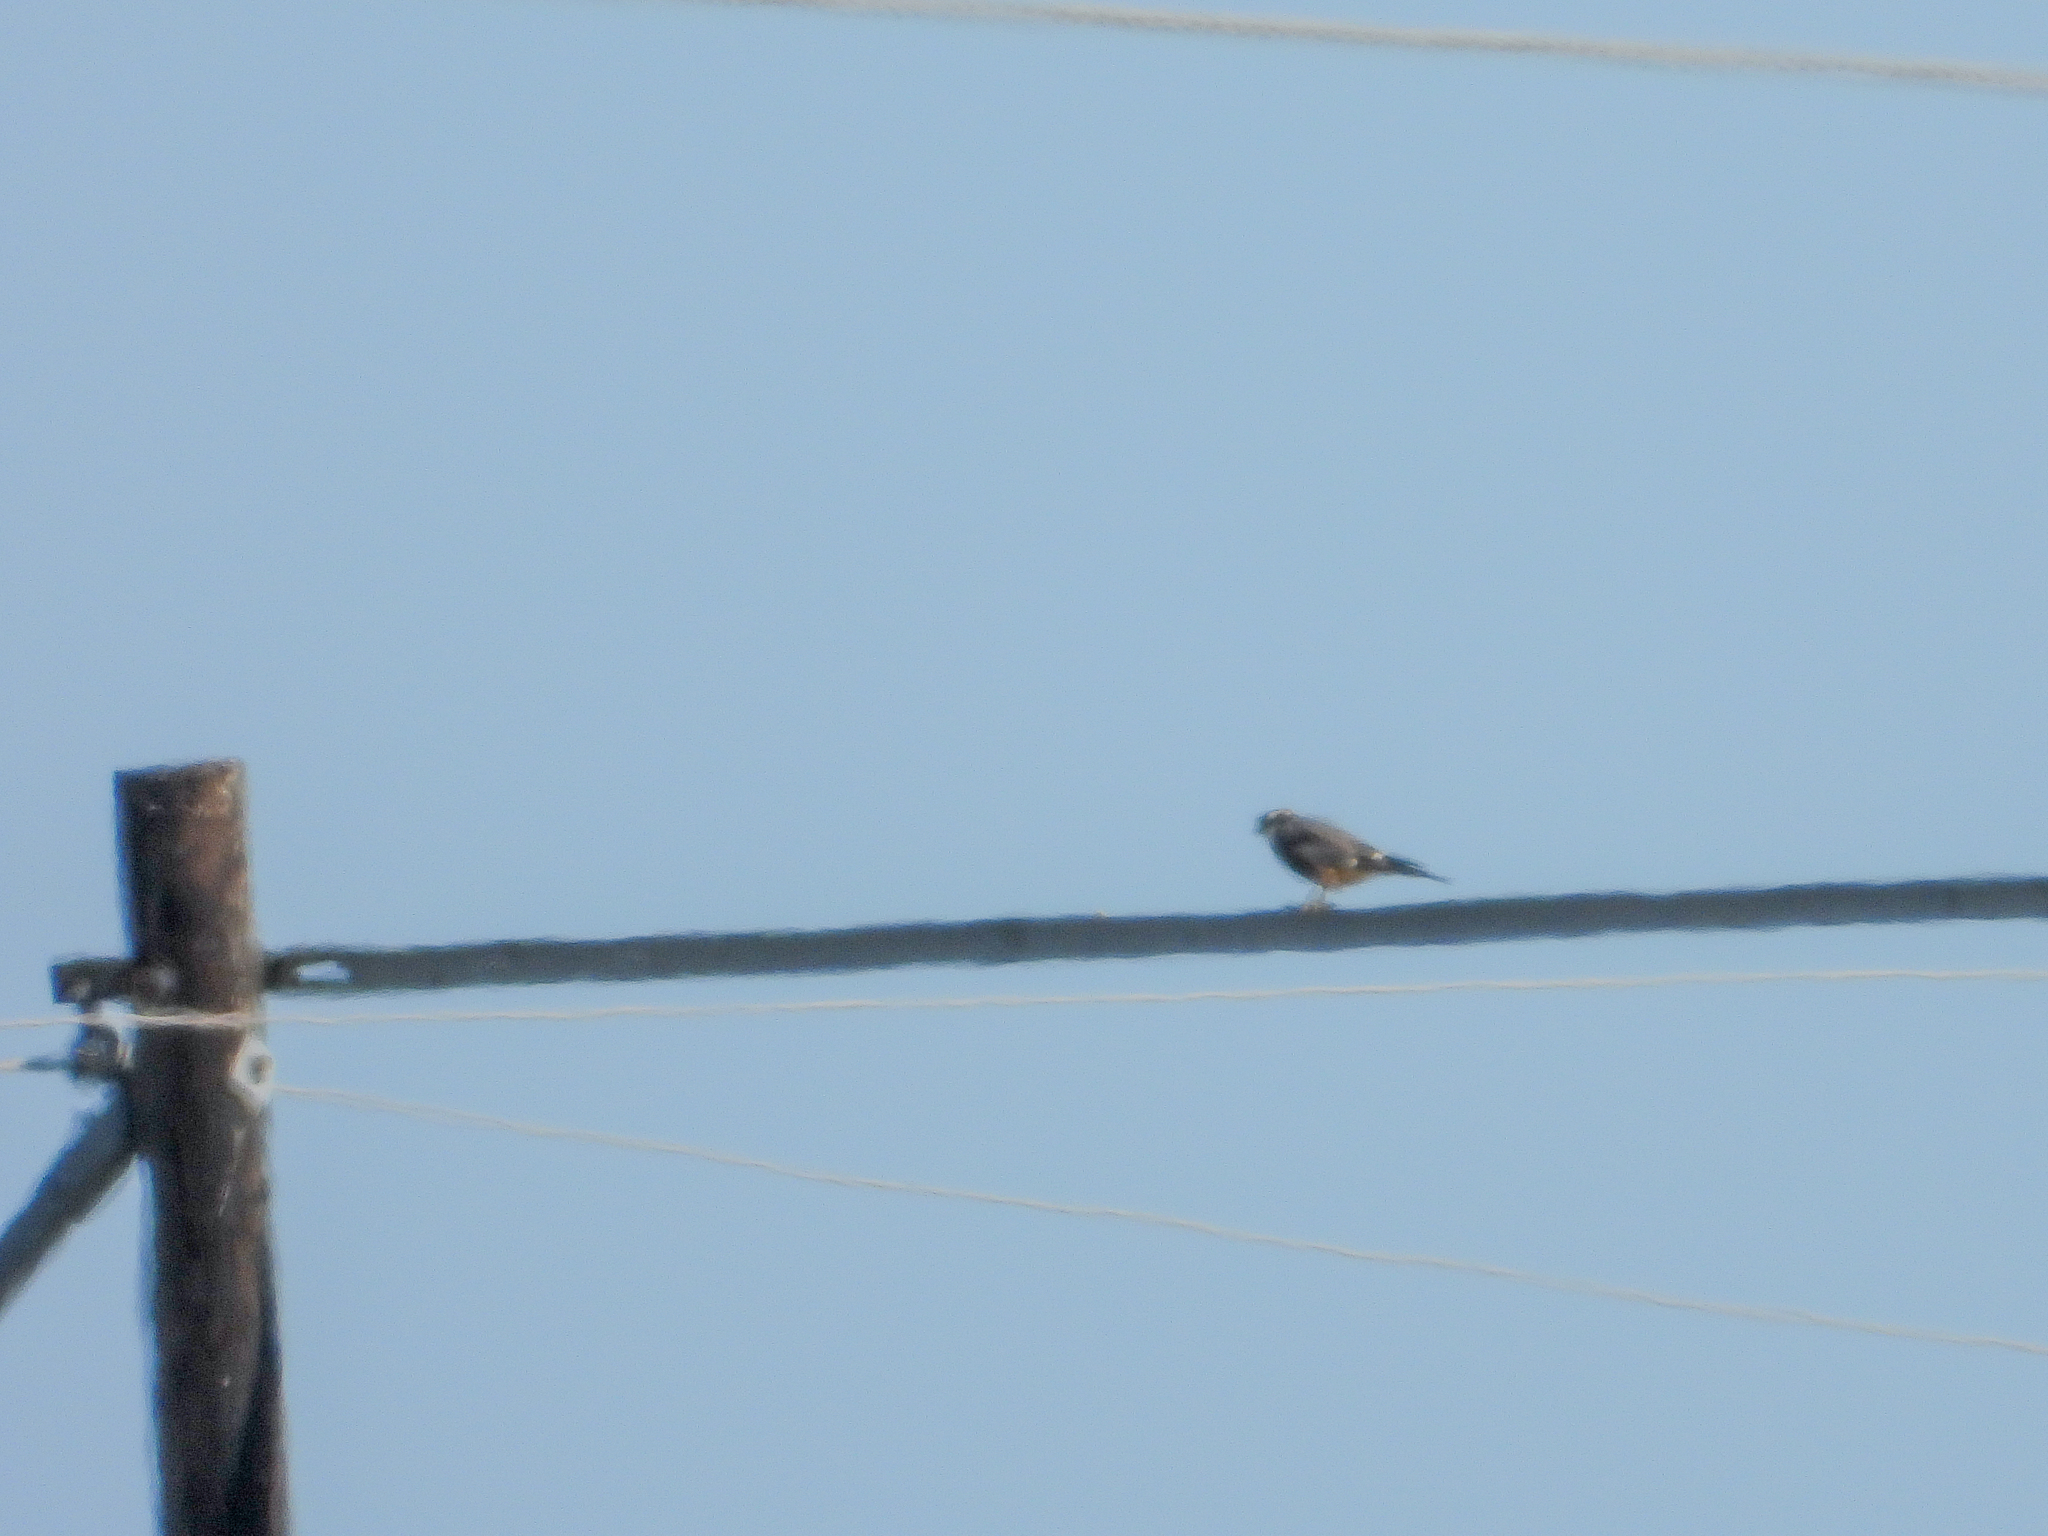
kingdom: Animalia
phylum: Chordata
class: Aves
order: Falconiformes
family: Falconidae
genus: Falco
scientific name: Falco femoralis
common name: Aplomado falcon
